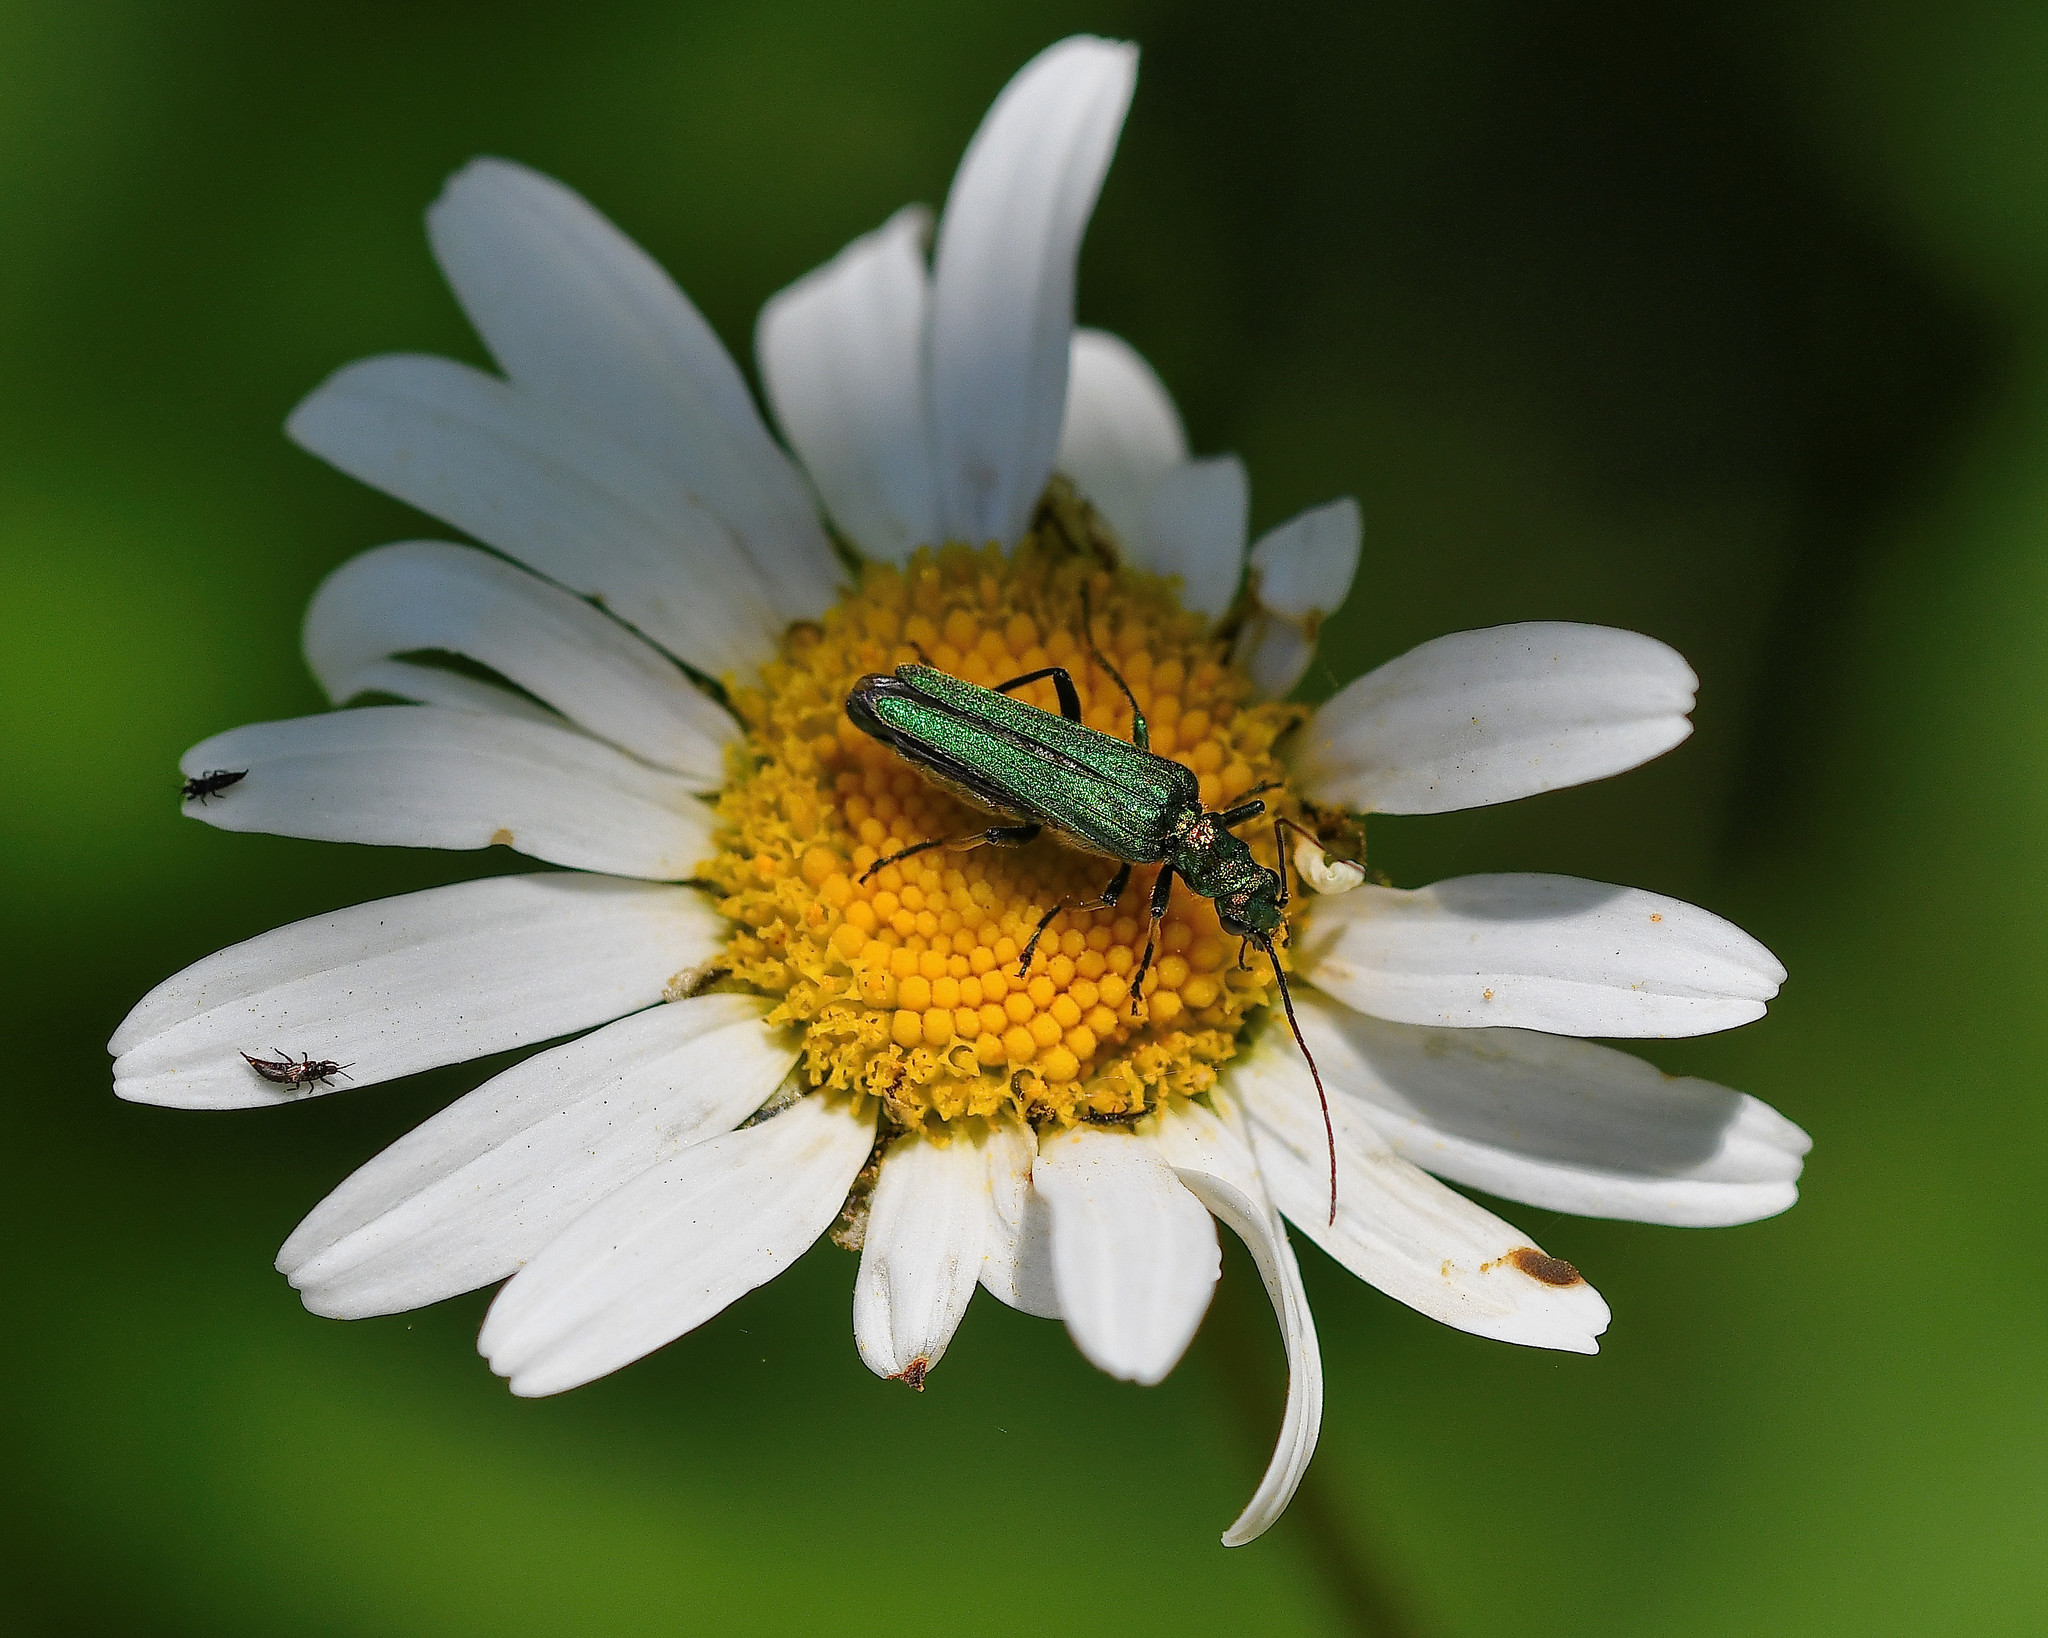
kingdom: Animalia
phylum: Arthropoda
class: Insecta
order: Coleoptera
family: Oedemeridae
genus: Oedemera
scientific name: Oedemera nobilis
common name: Swollen-thighed beetle
